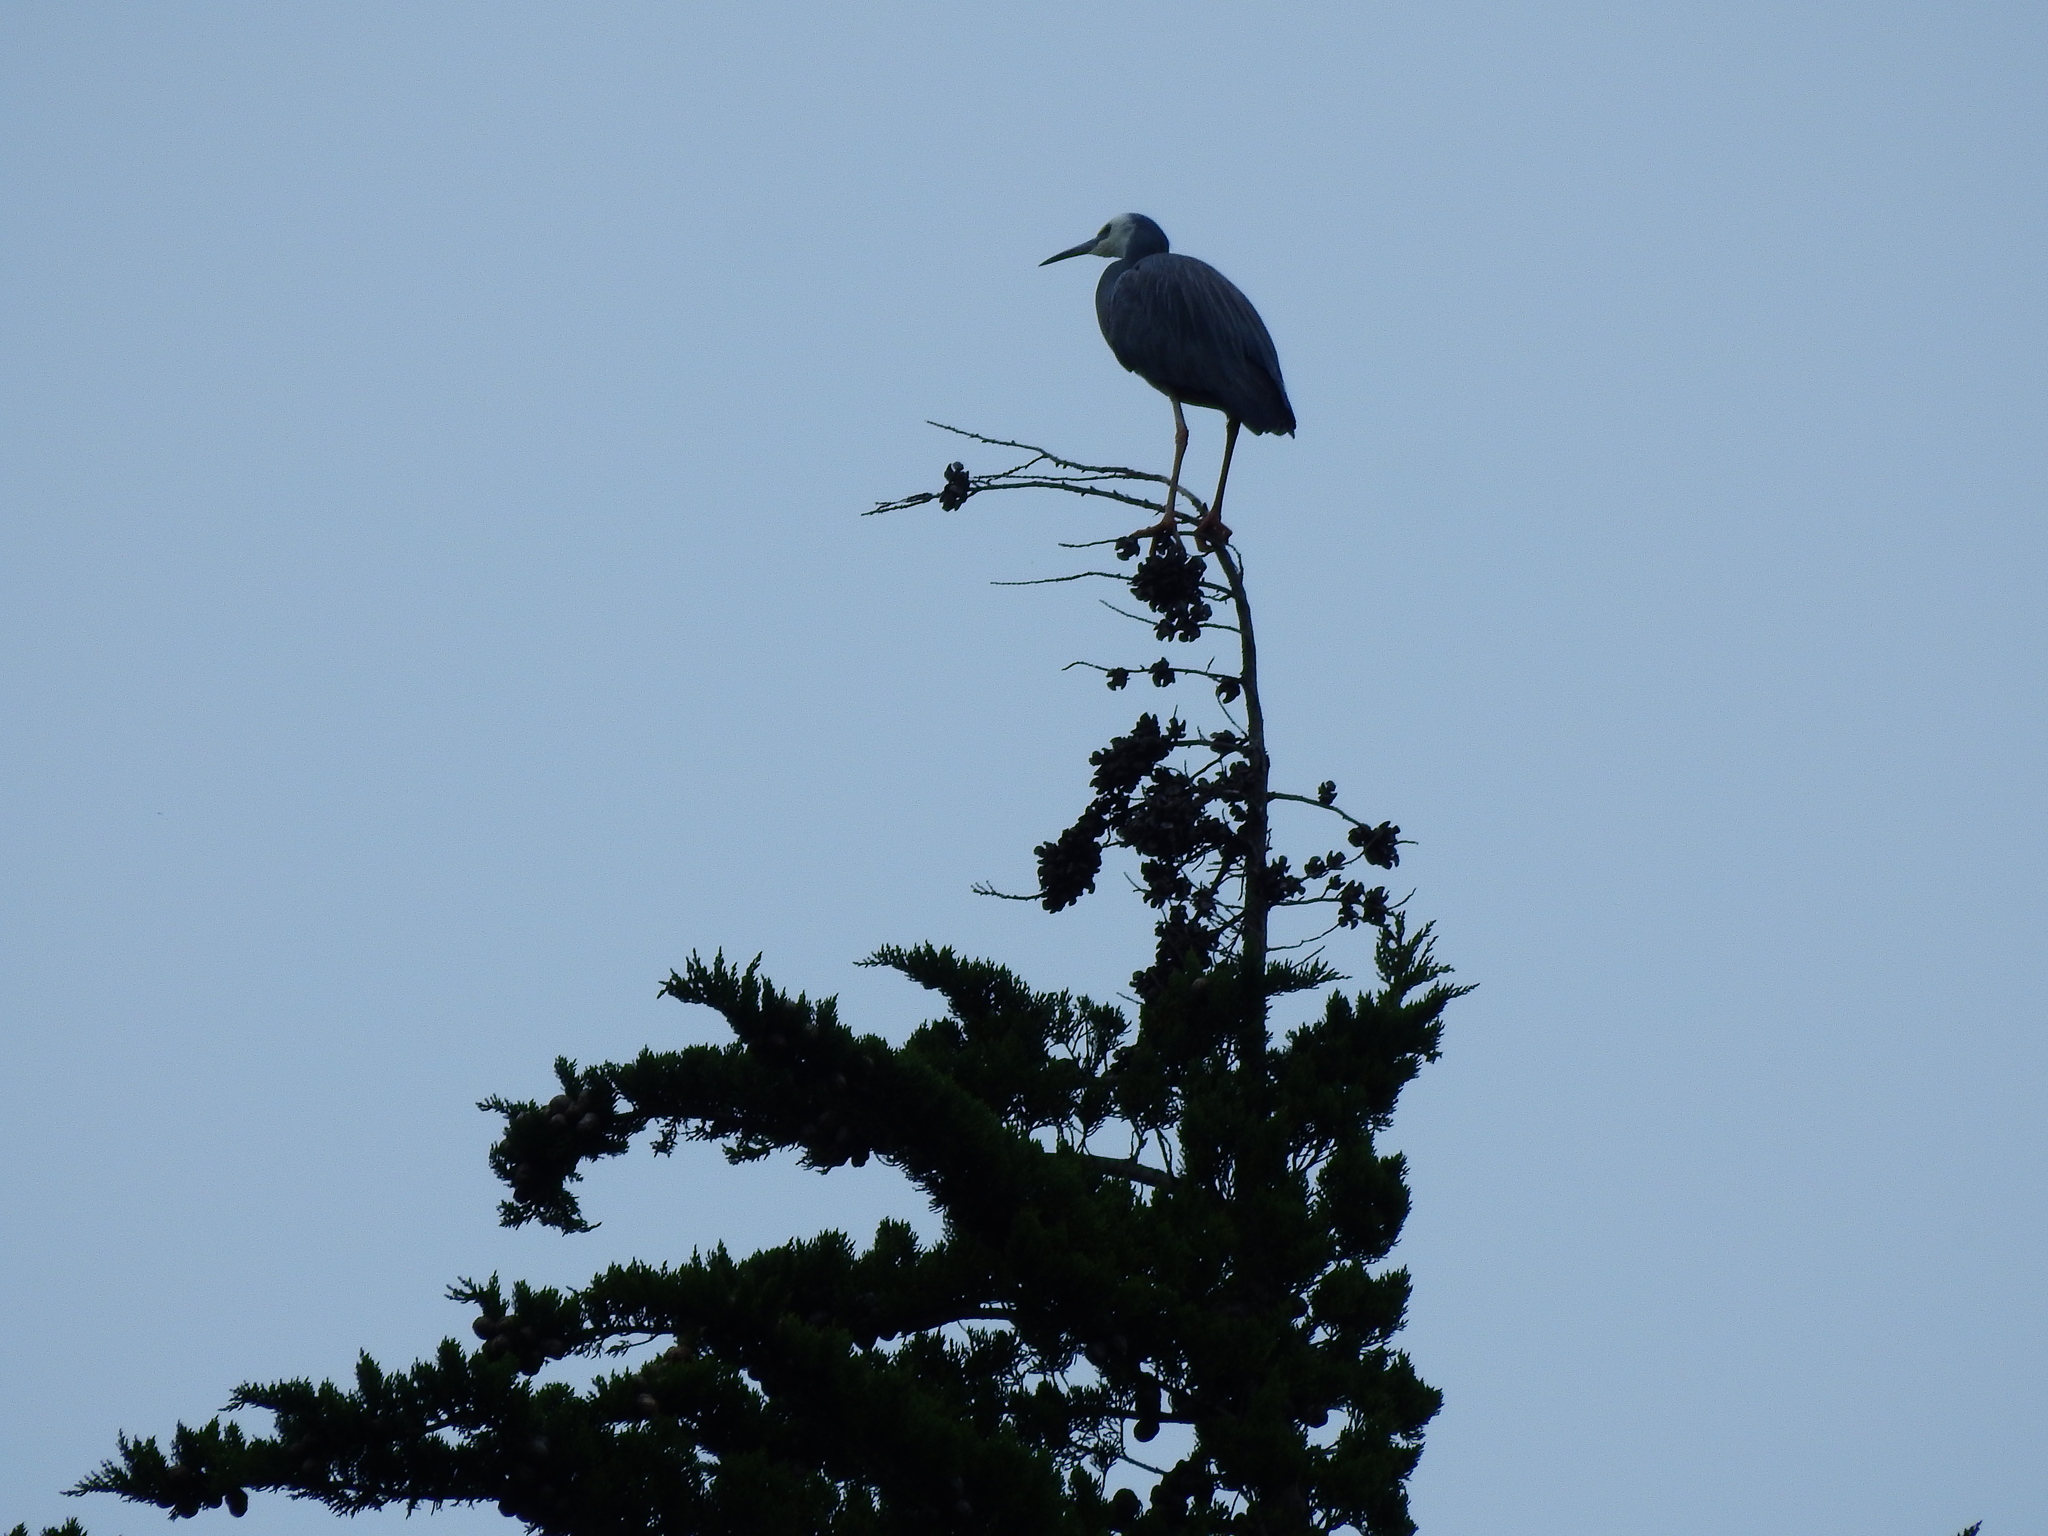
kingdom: Animalia
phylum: Chordata
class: Aves
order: Pelecaniformes
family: Ardeidae
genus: Egretta
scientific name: Egretta novaehollandiae
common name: White-faced heron
